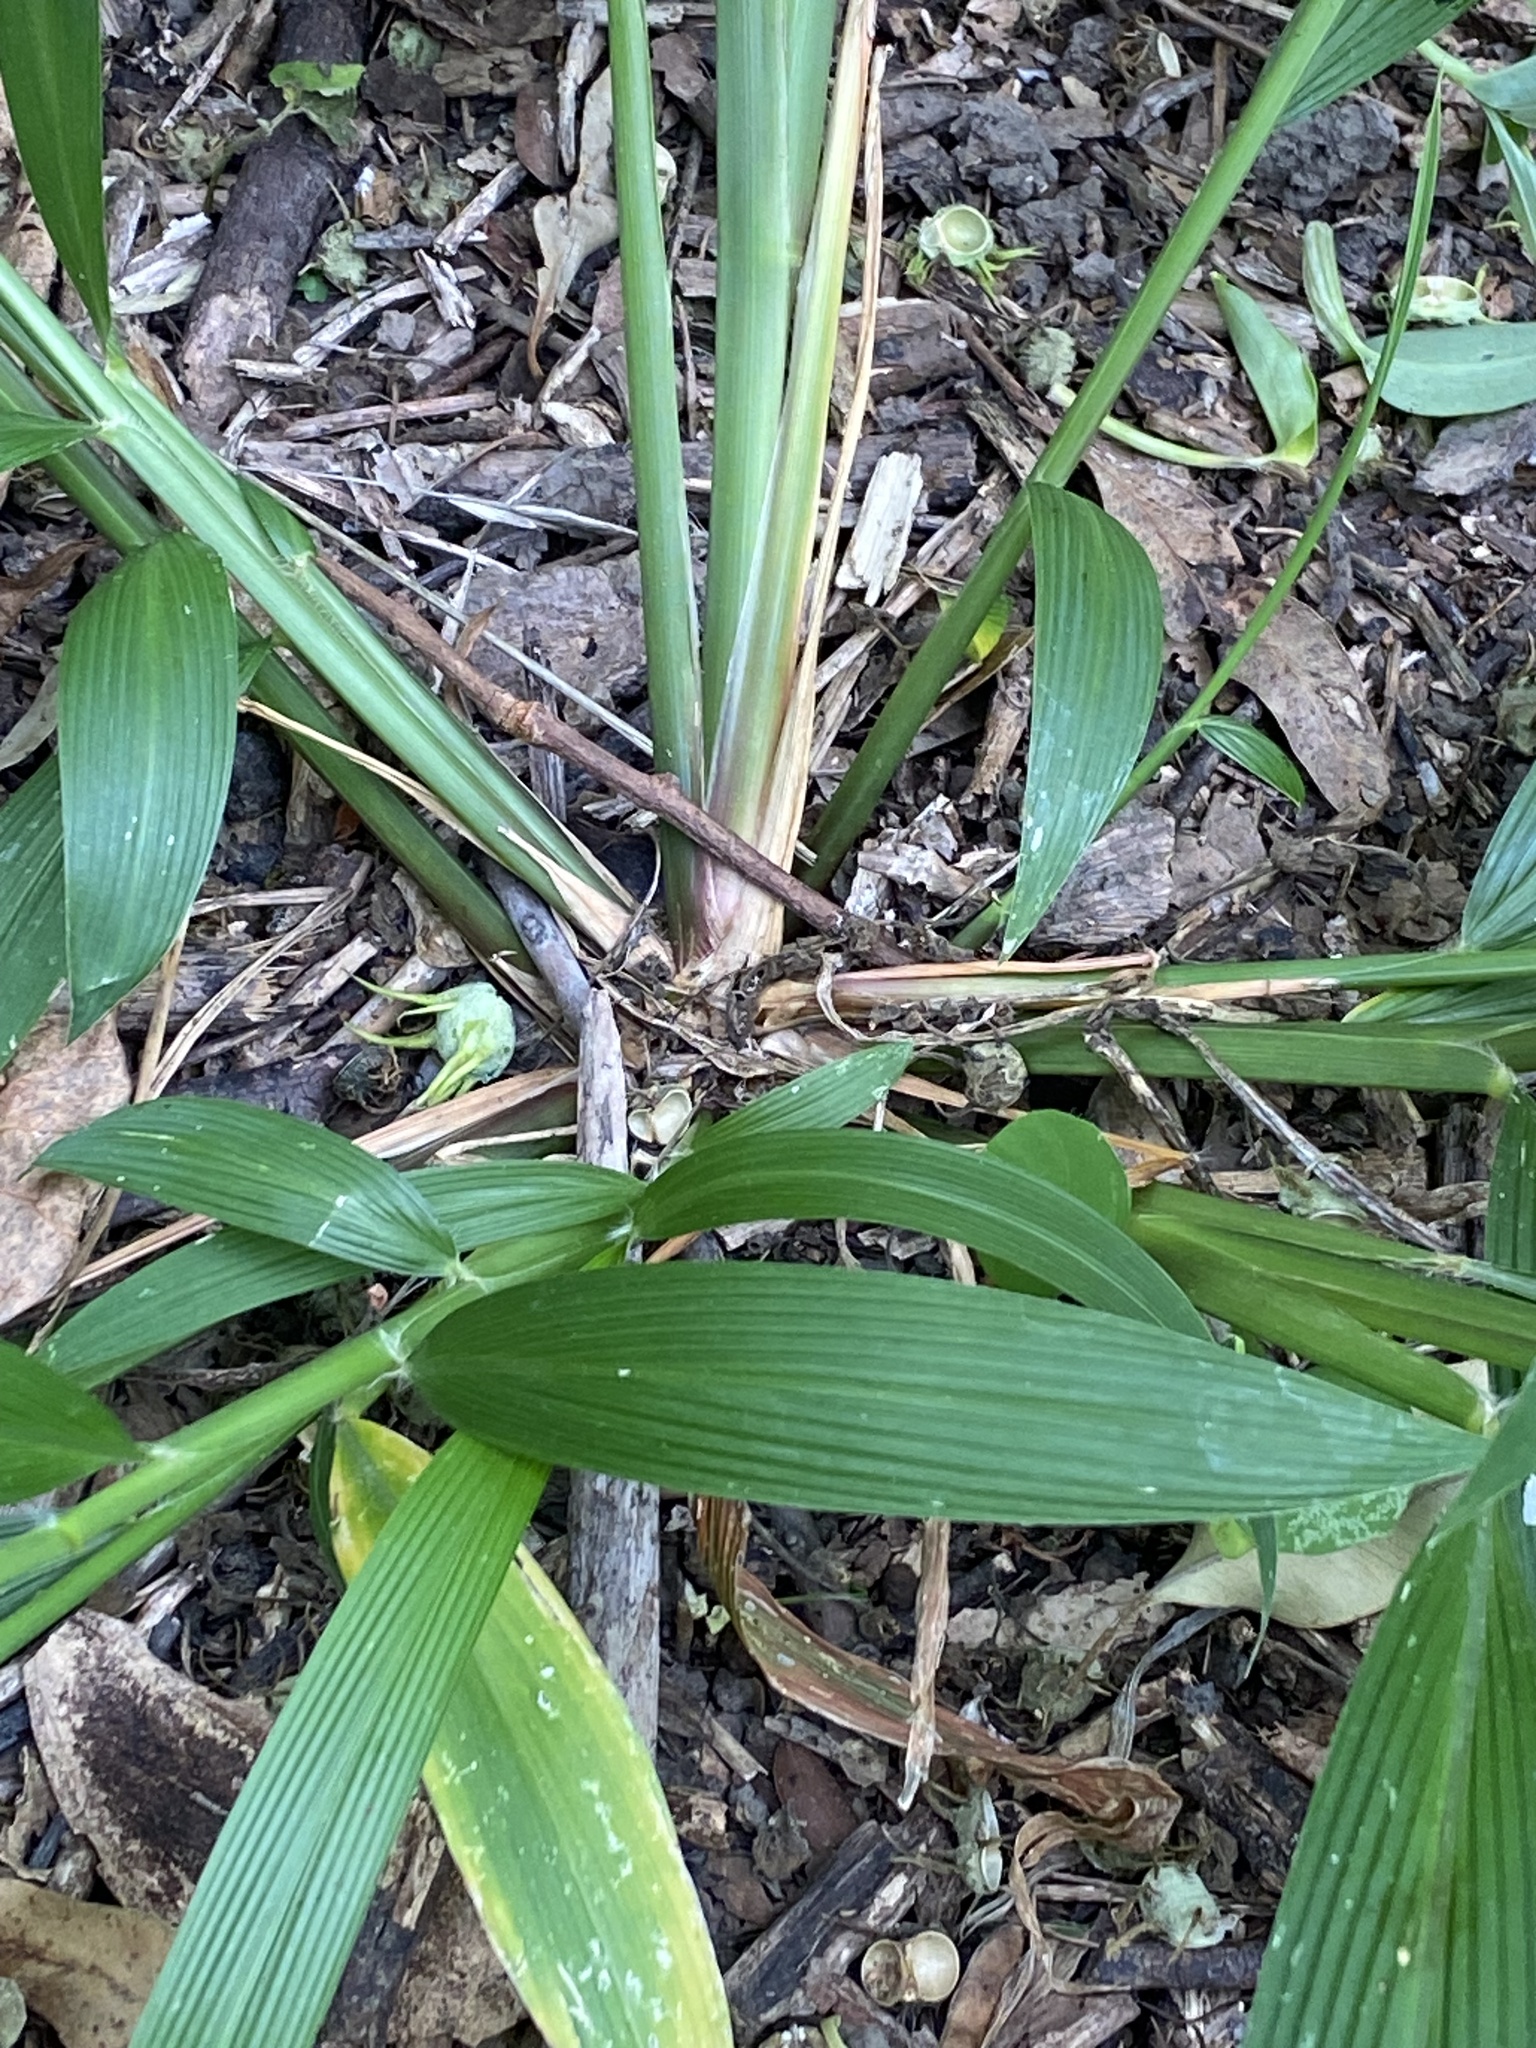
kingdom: Plantae
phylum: Tracheophyta
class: Liliopsida
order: Poales
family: Poaceae
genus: Setaria
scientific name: Setaria palmifolia
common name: Broadleaved bristlegrass
